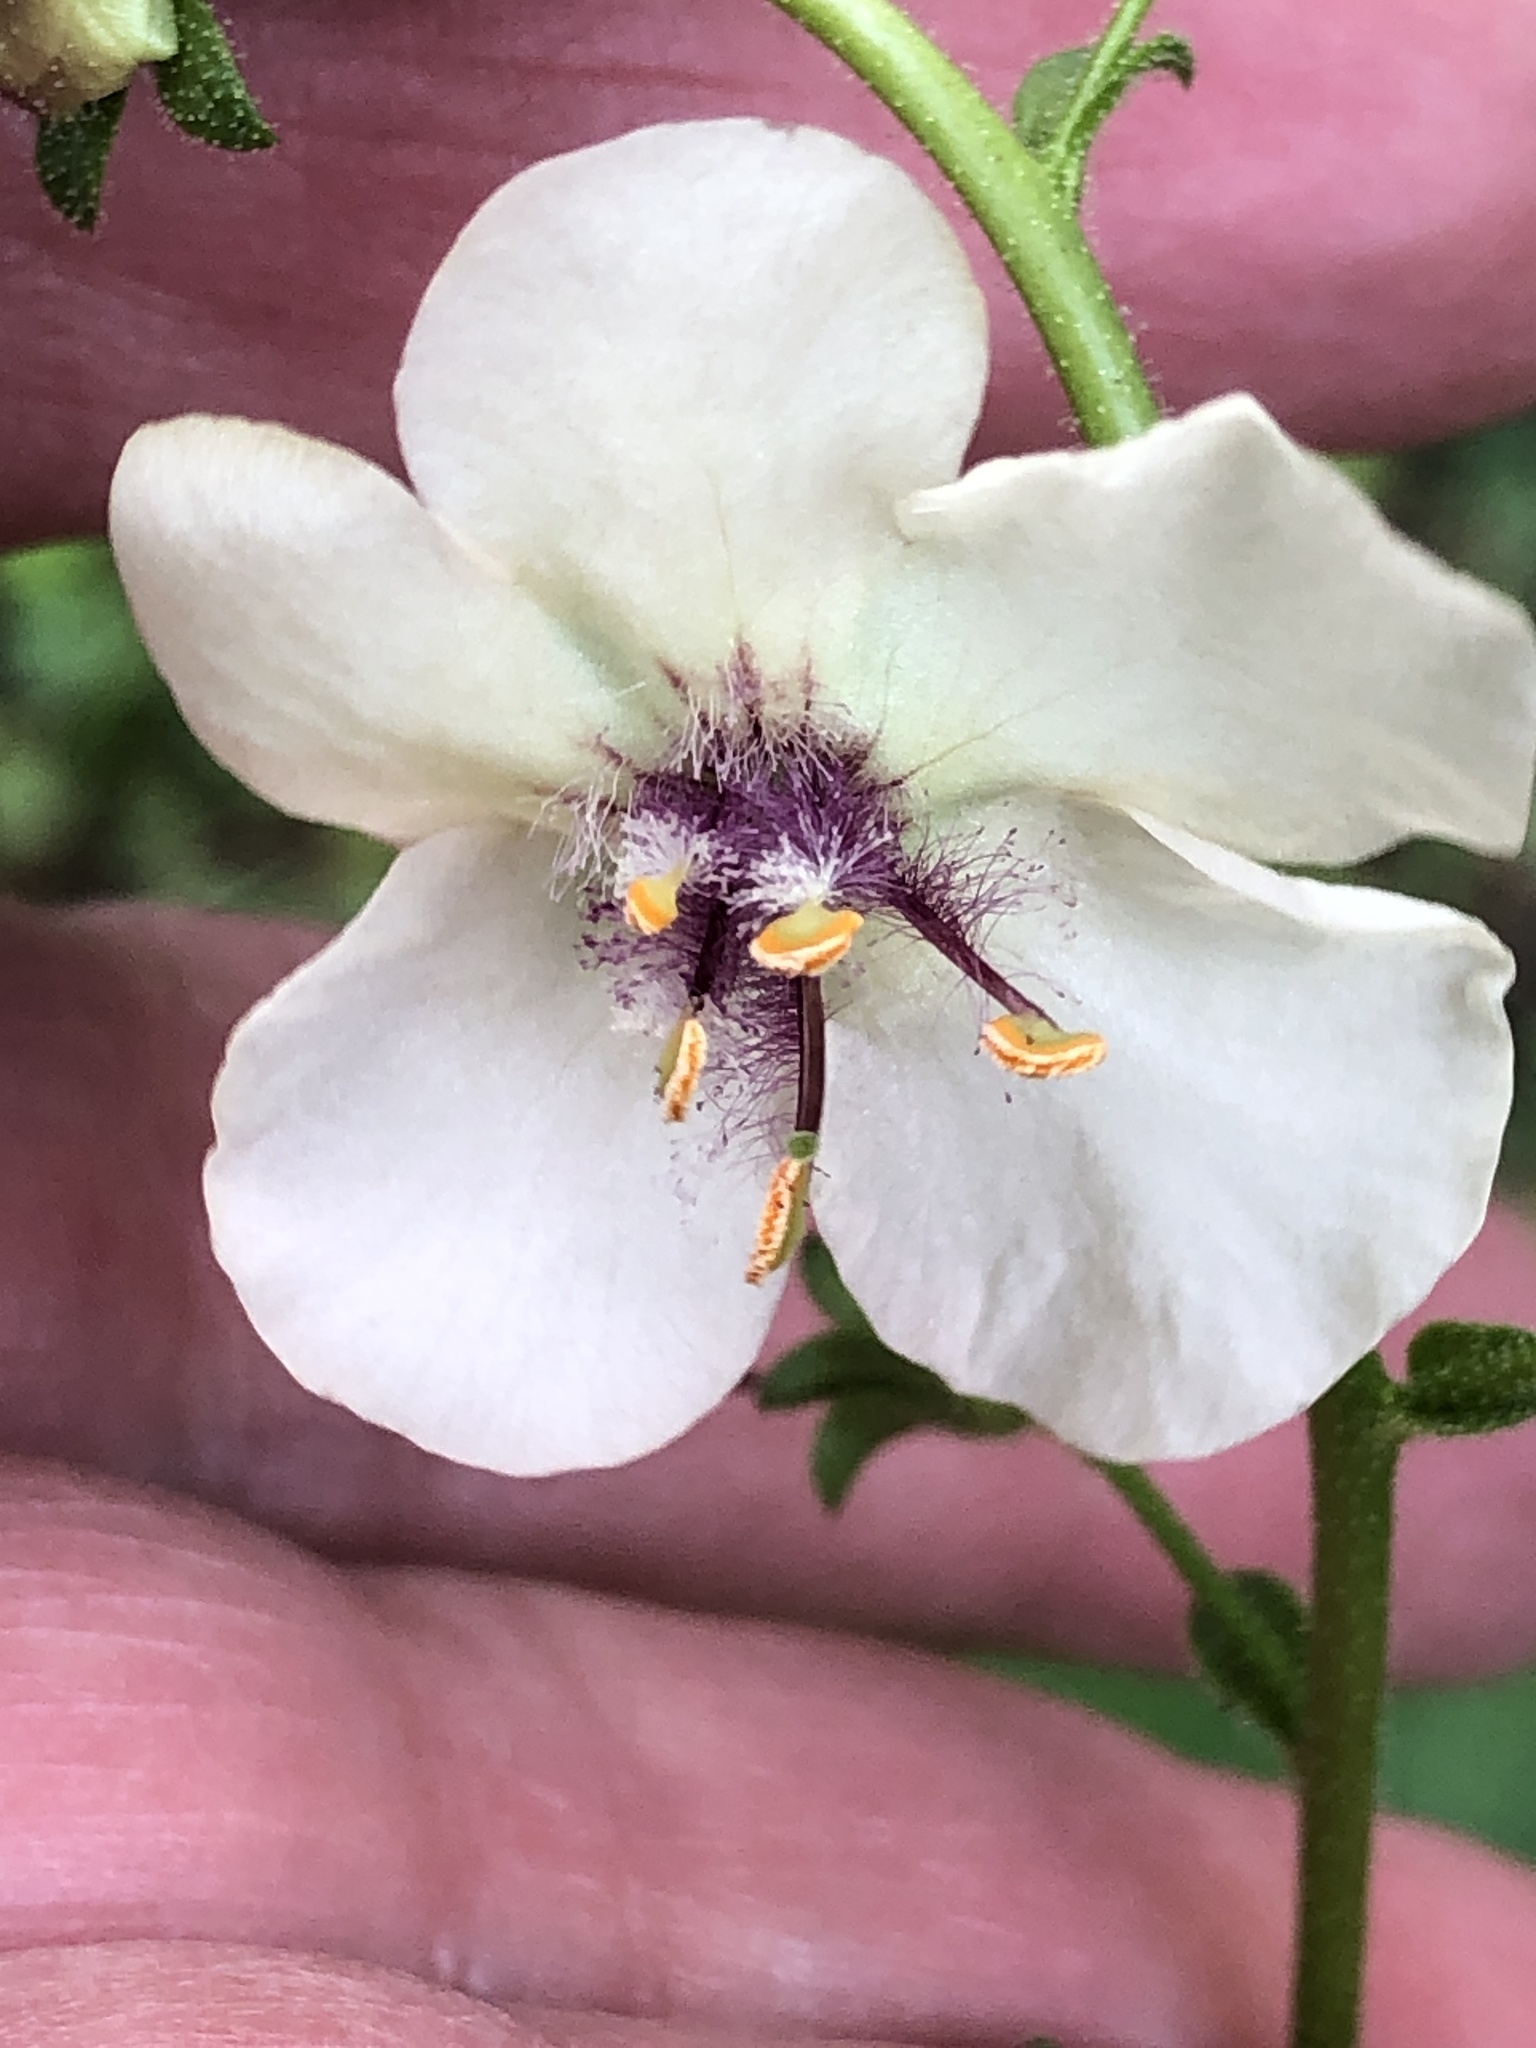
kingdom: Plantae
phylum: Tracheophyta
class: Magnoliopsida
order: Lamiales
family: Scrophulariaceae
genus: Verbascum
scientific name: Verbascum blattaria
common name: Moth mullein
